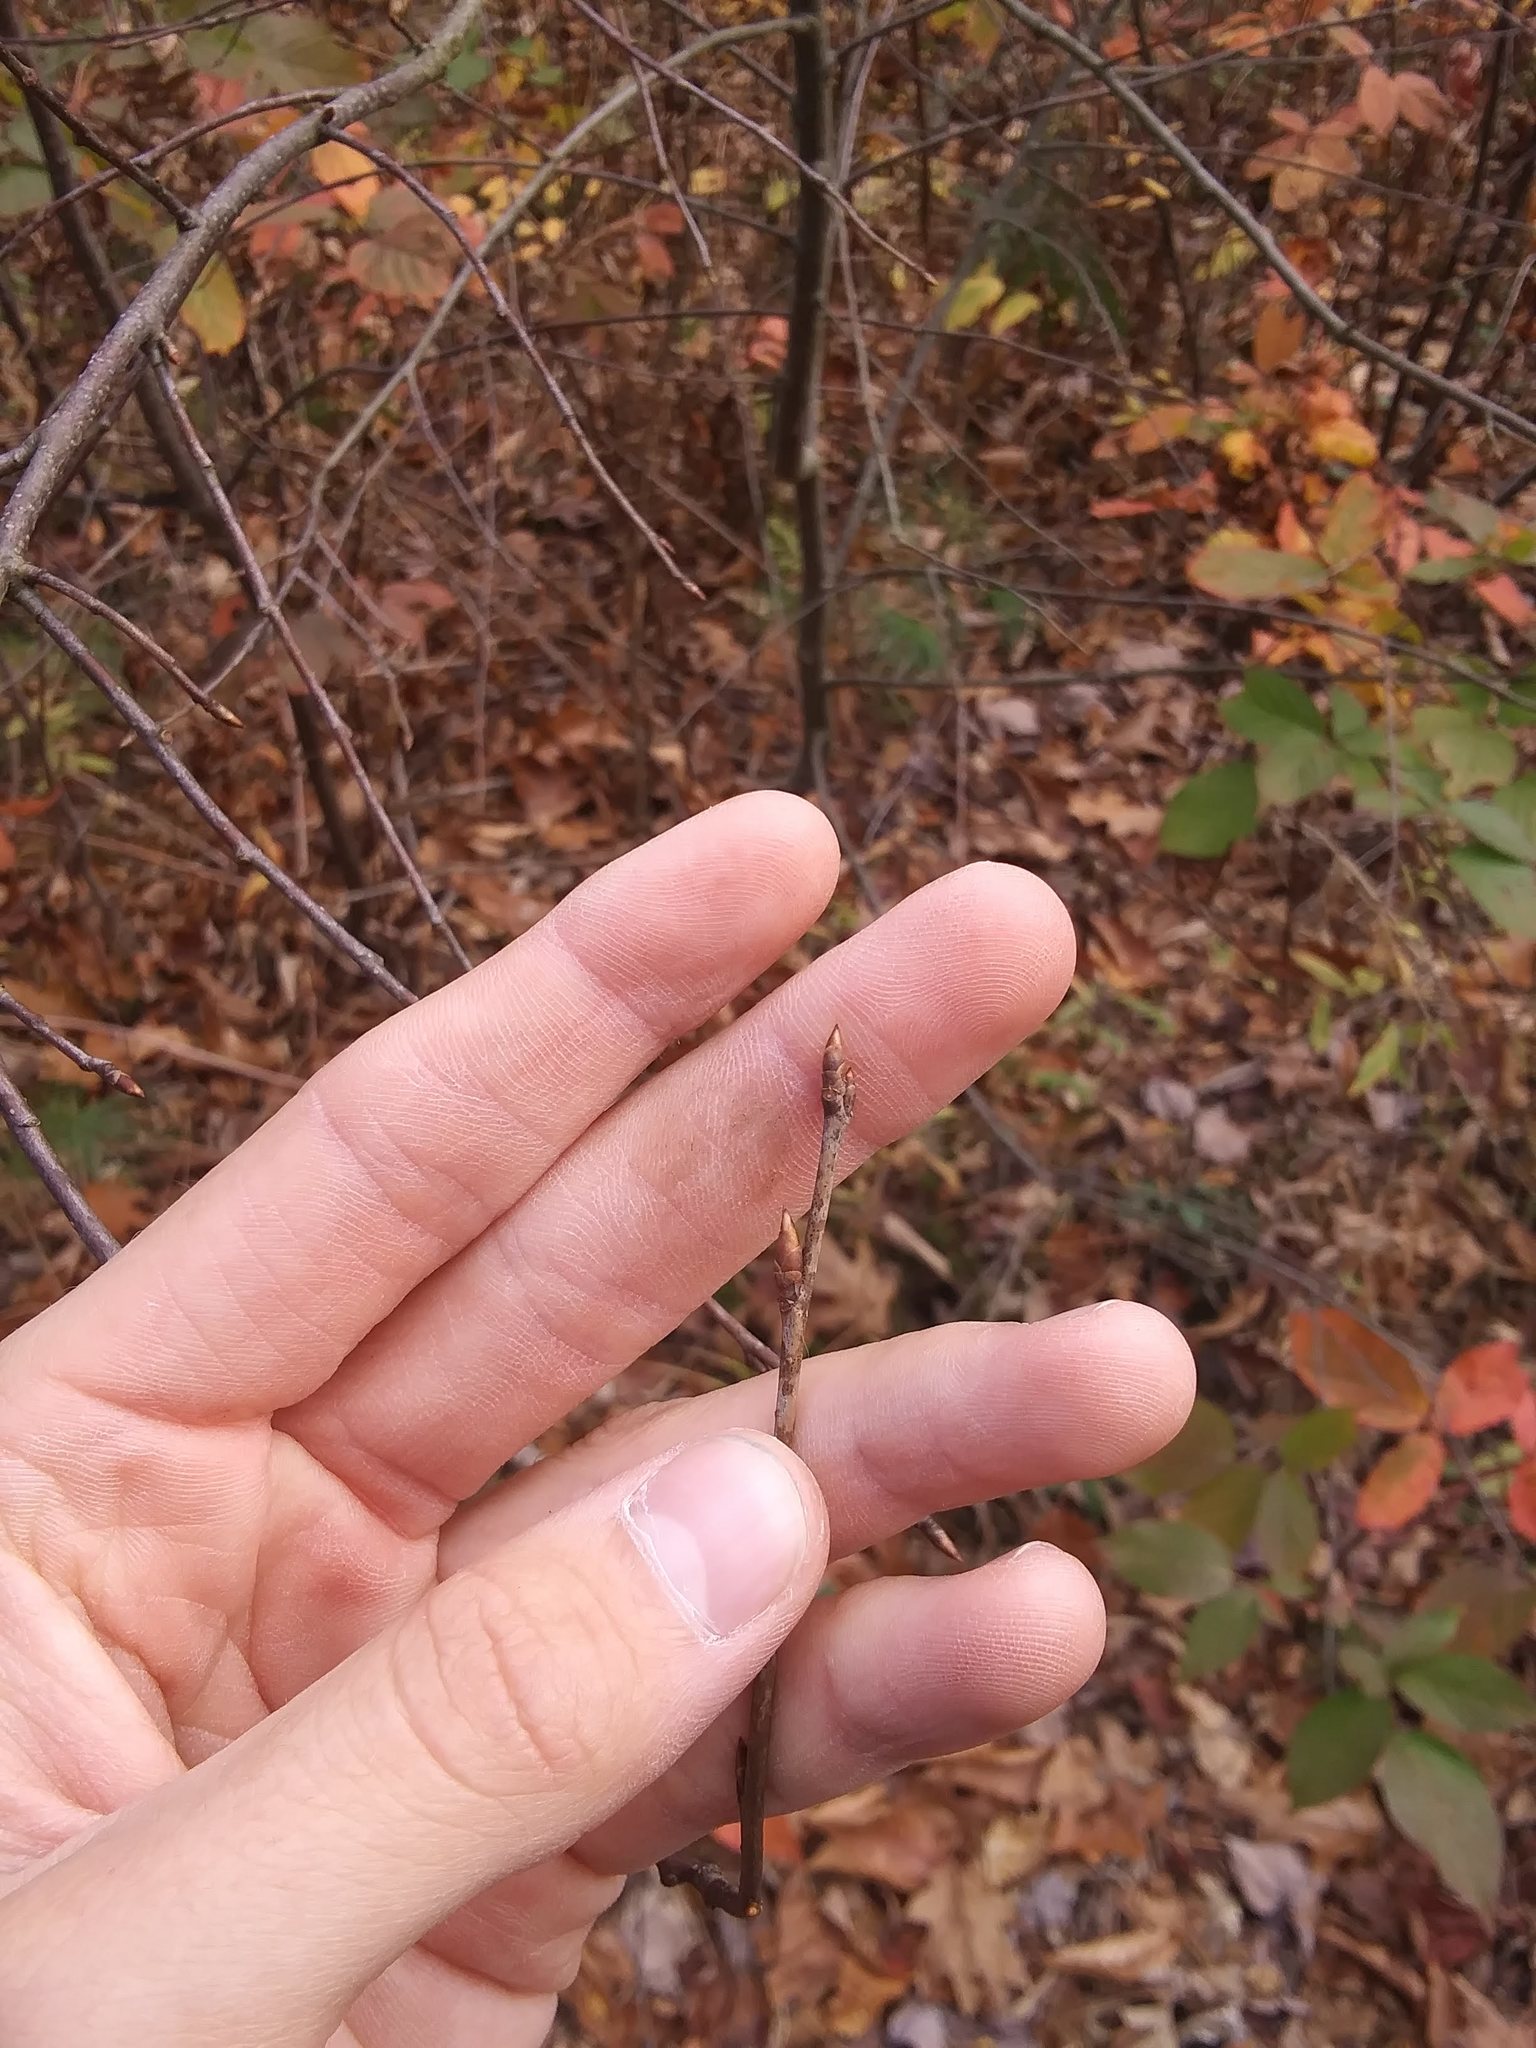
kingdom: Plantae
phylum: Tracheophyta
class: Magnoliopsida
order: Rosales
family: Rosaceae
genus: Prunus
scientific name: Prunus virginiana
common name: Chokecherry
